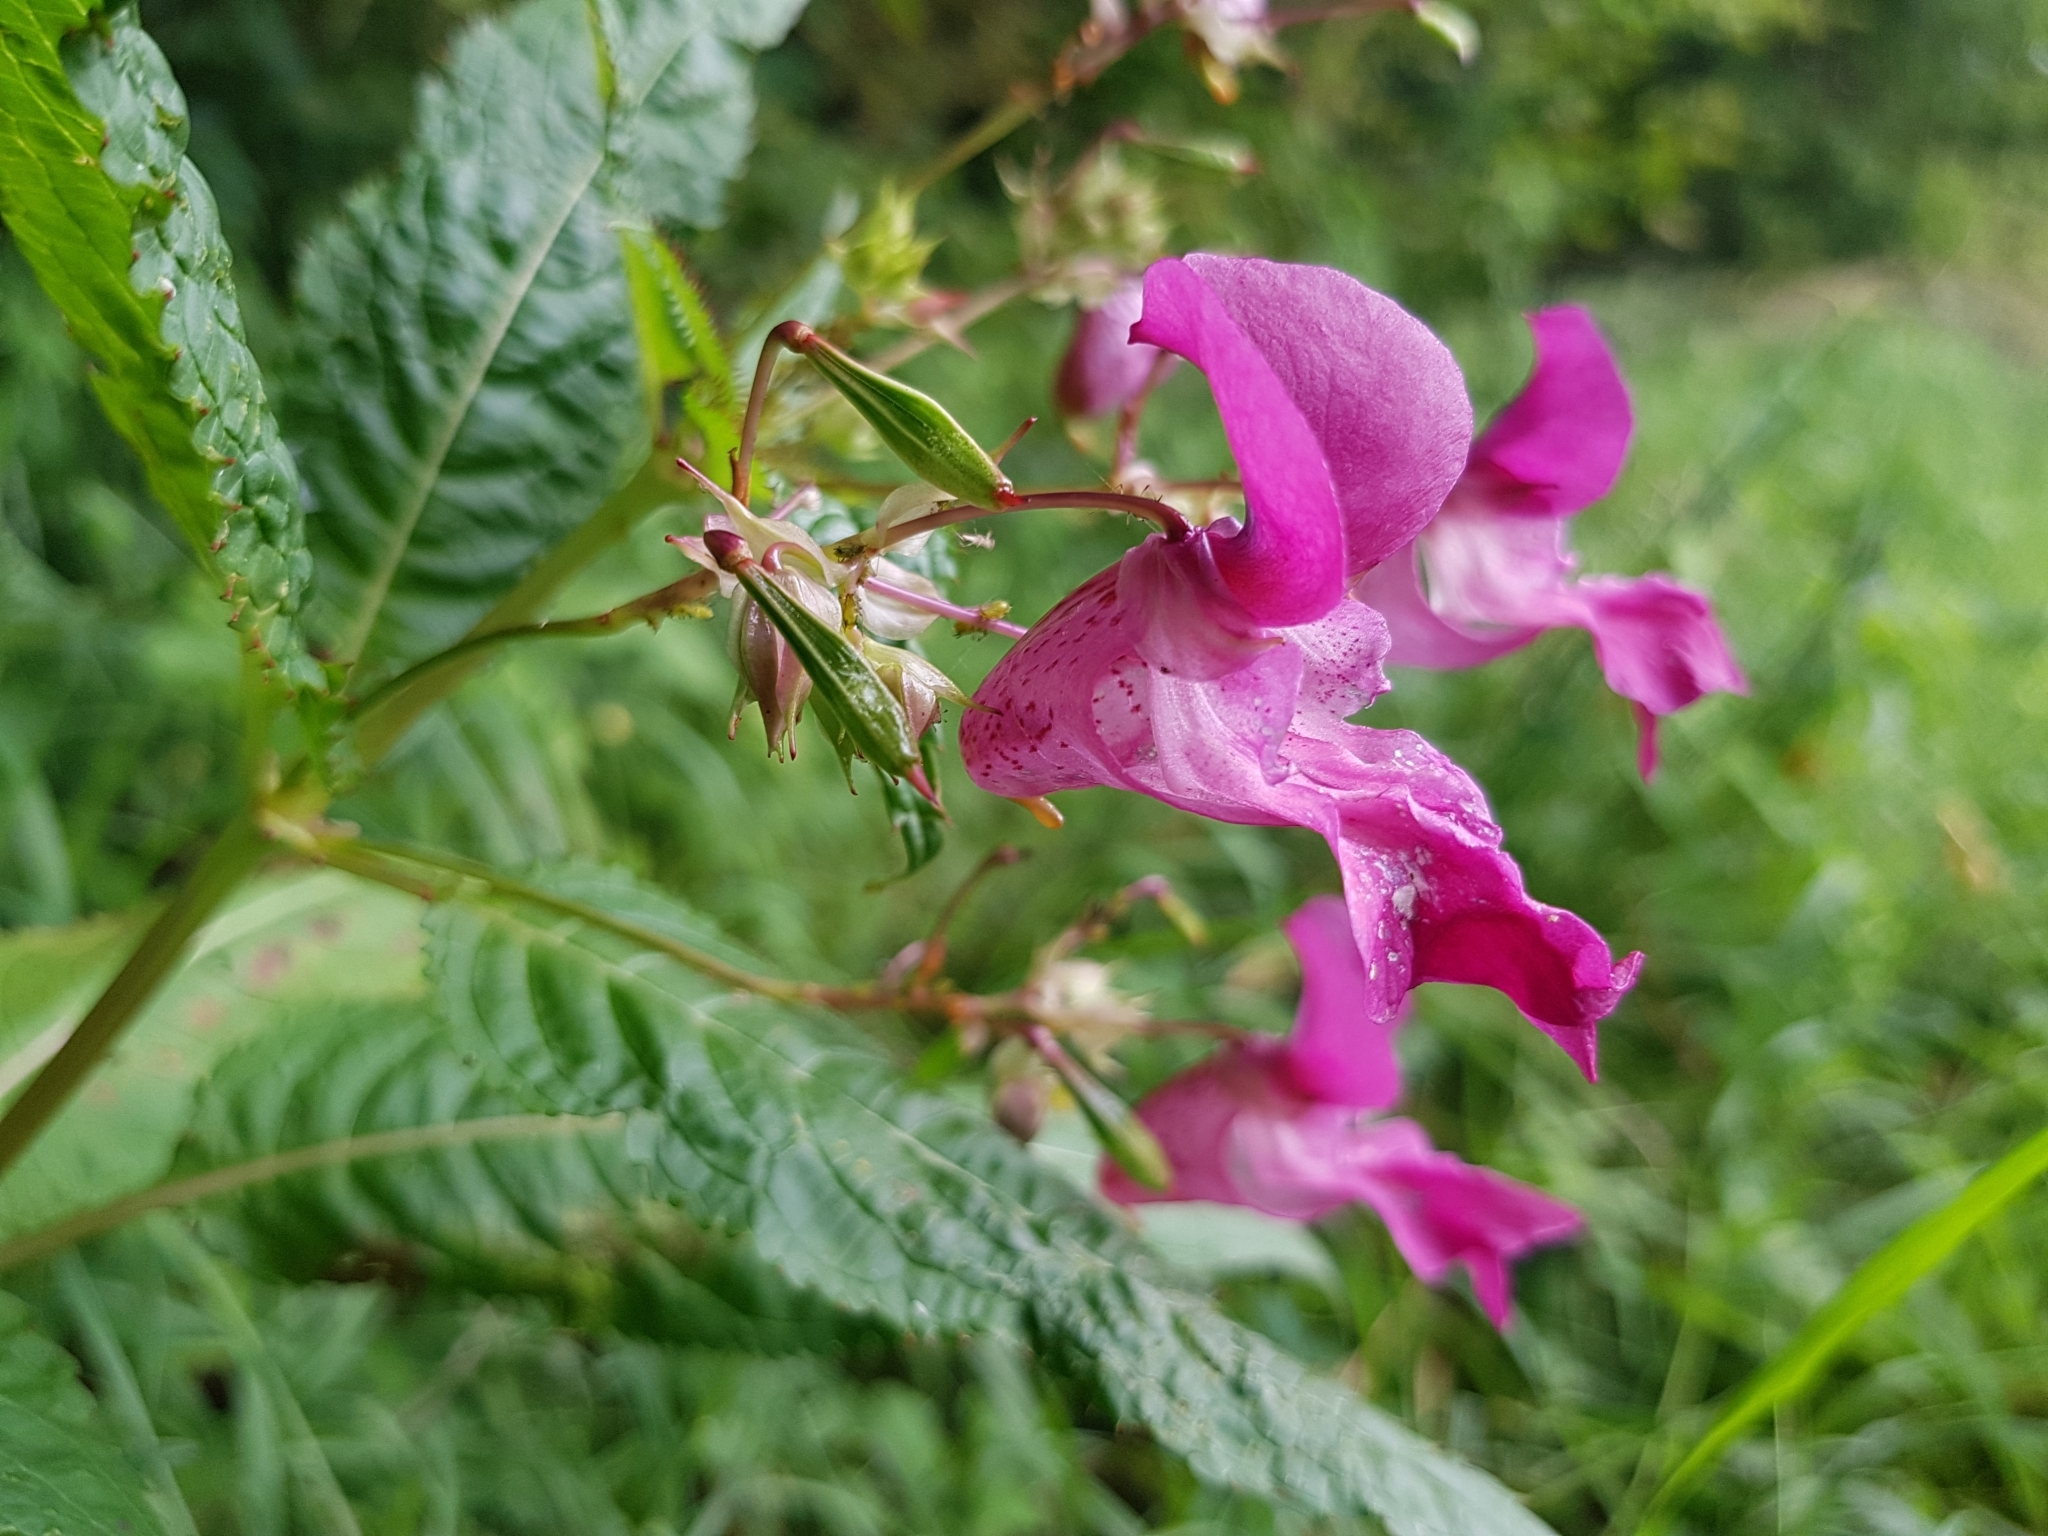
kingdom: Plantae
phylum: Tracheophyta
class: Magnoliopsida
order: Ericales
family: Balsaminaceae
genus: Impatiens
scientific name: Impatiens glandulifera
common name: Himalayan balsam
